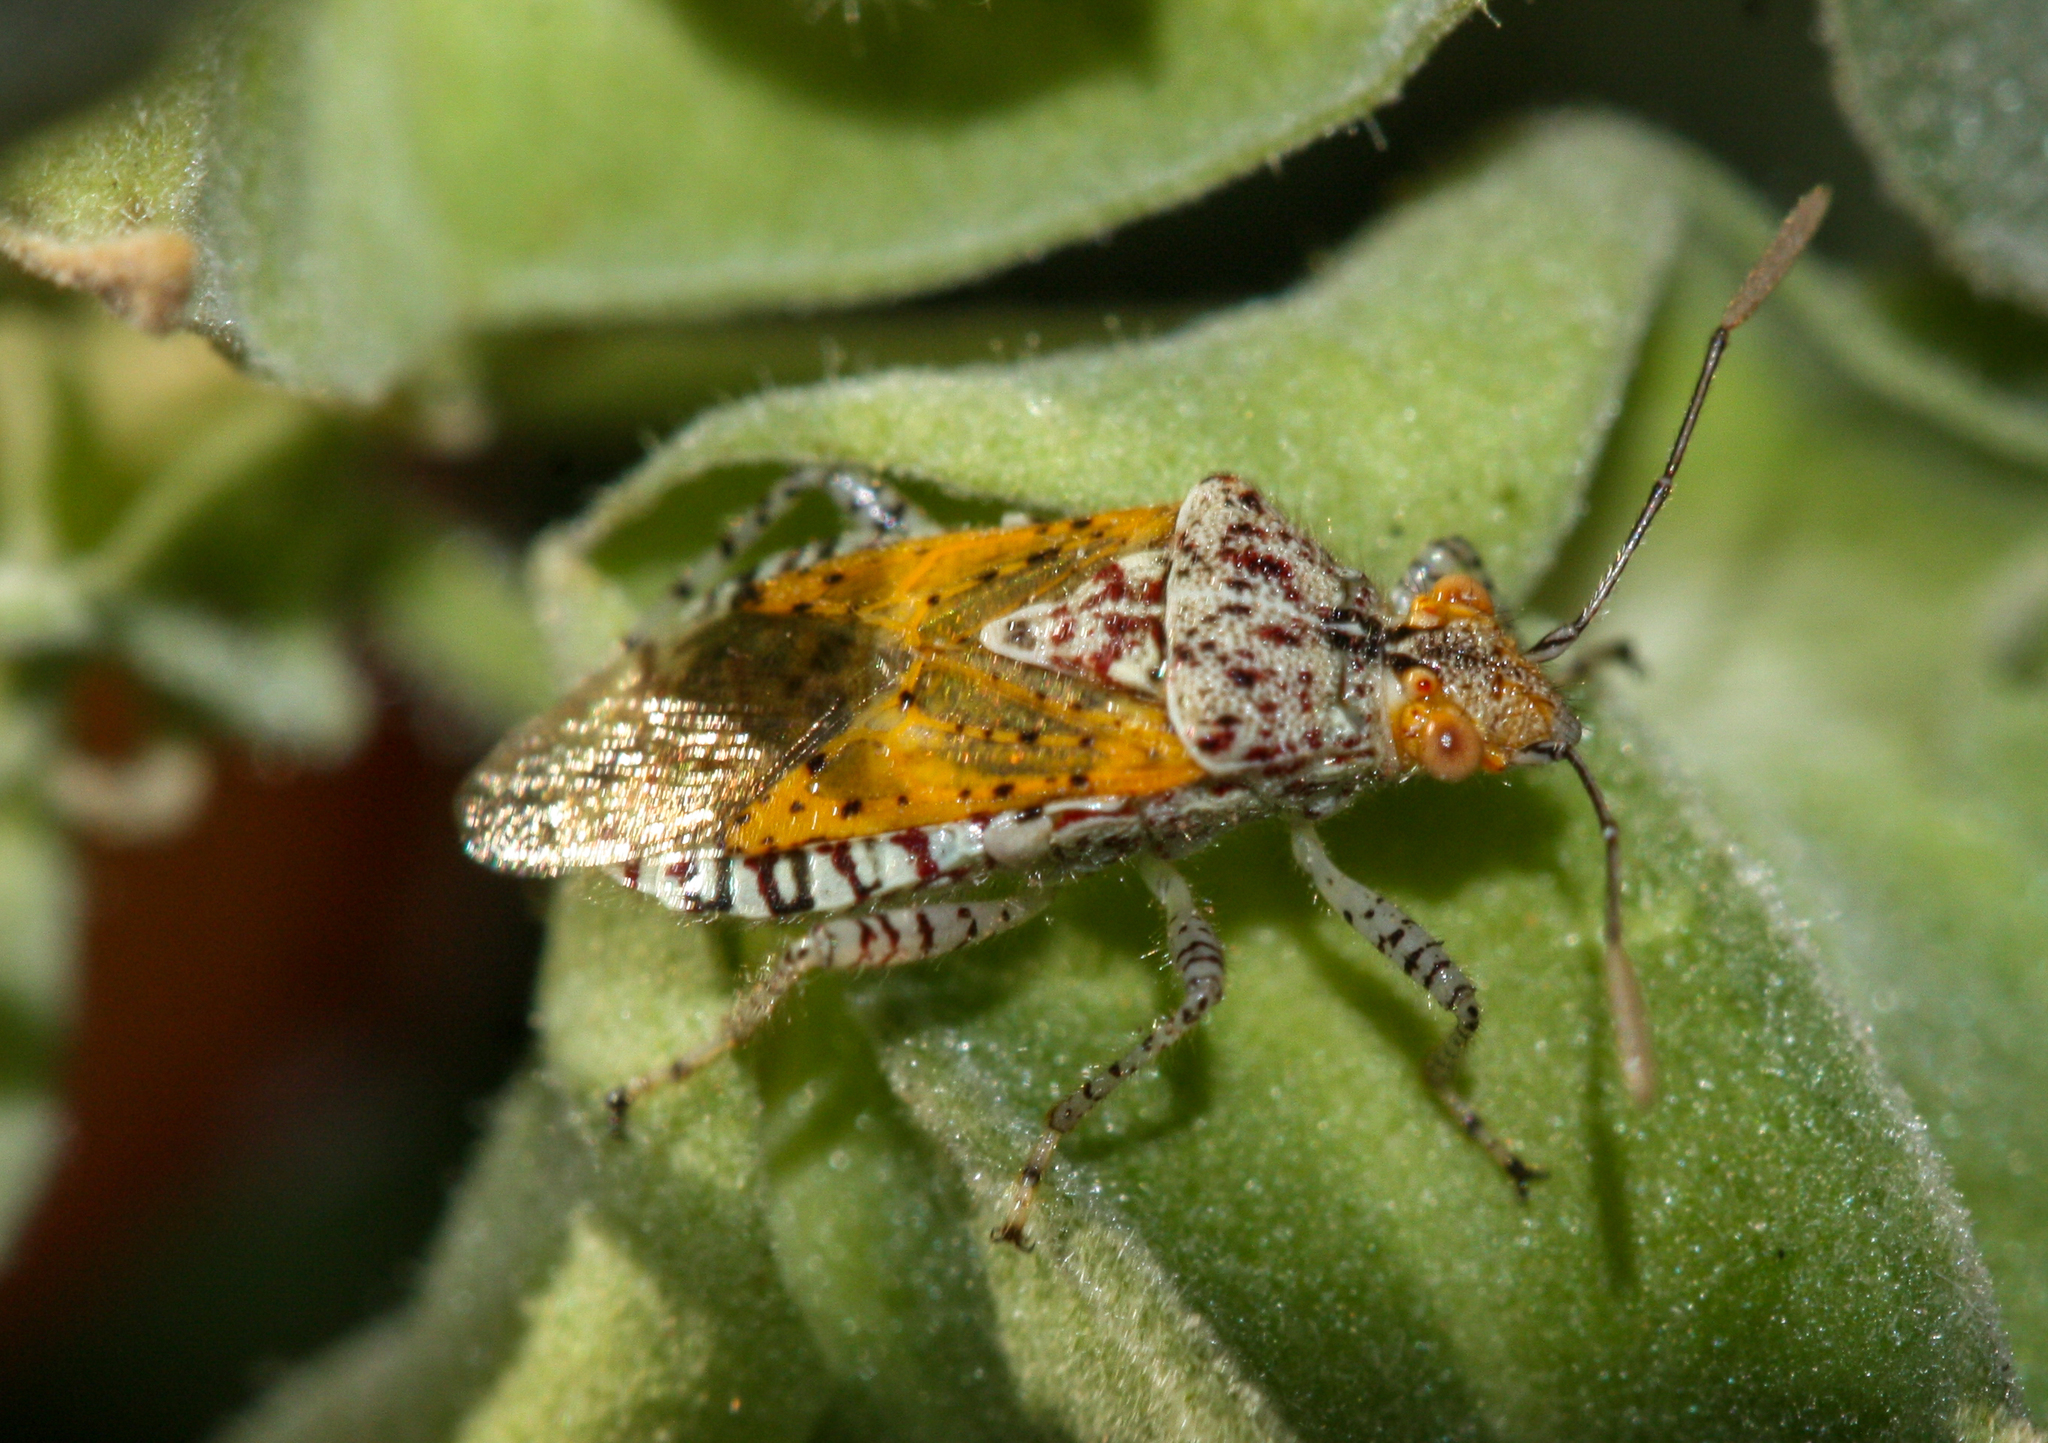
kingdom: Animalia
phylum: Arthropoda
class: Insecta
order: Hemiptera
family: Rhopalidae
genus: Niesthrea
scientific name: Niesthrea louisianica
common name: Scentless plant bug
